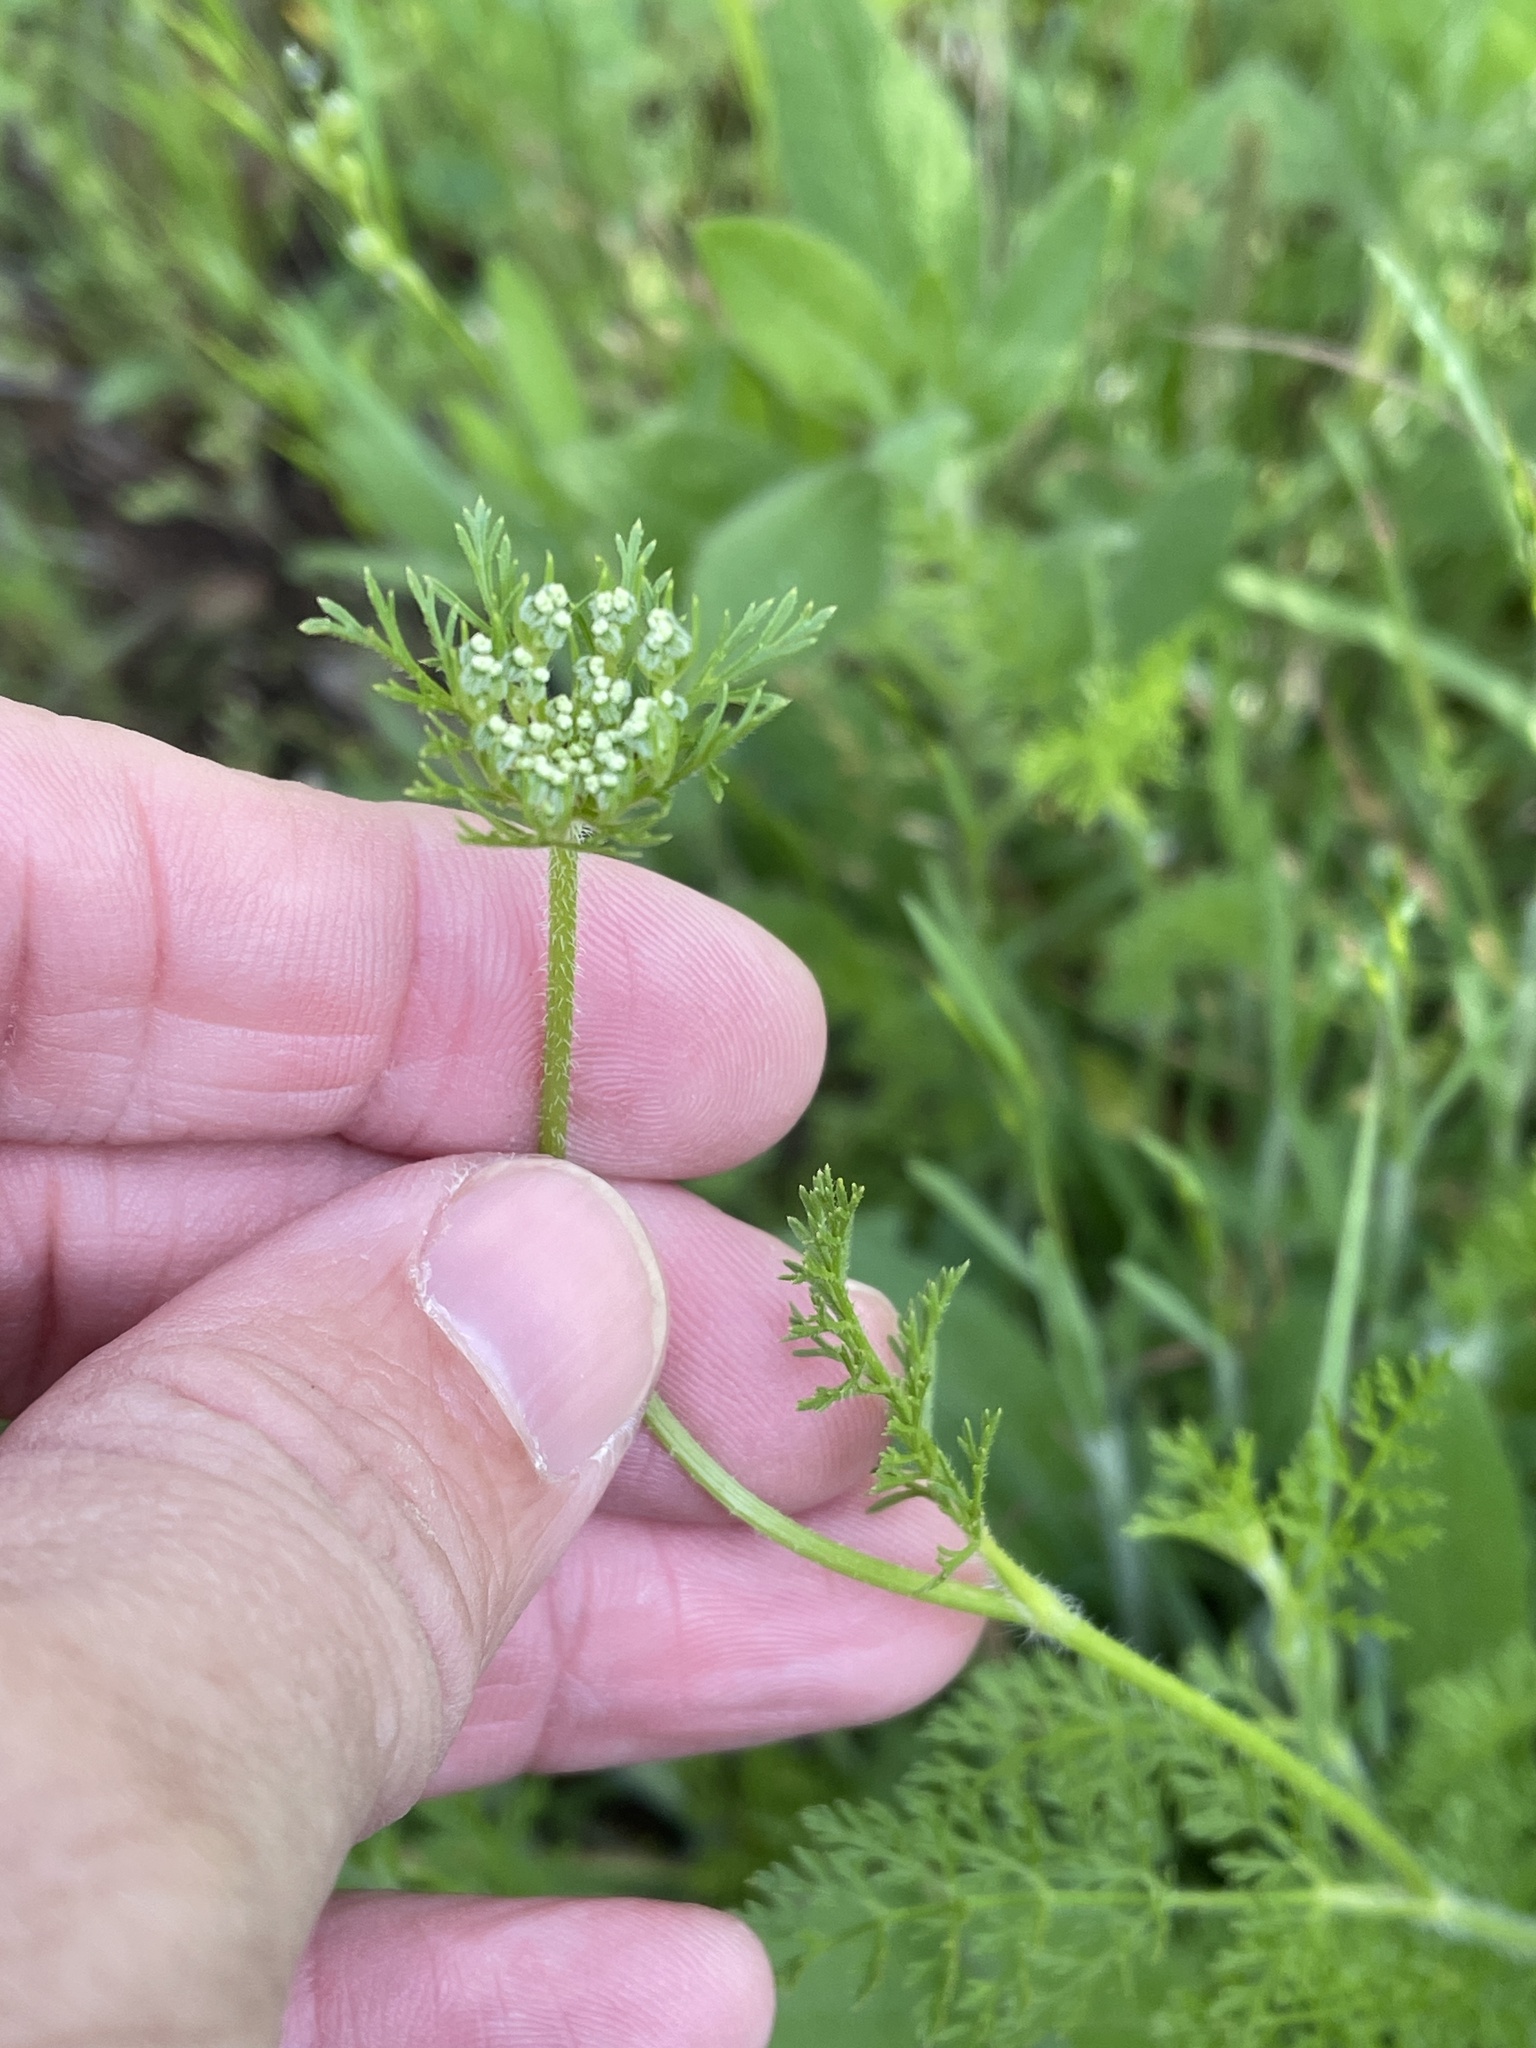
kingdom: Plantae
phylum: Tracheophyta
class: Magnoliopsida
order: Apiales
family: Apiaceae
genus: Daucus
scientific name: Daucus pusillus
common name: Southwest wild carrot
